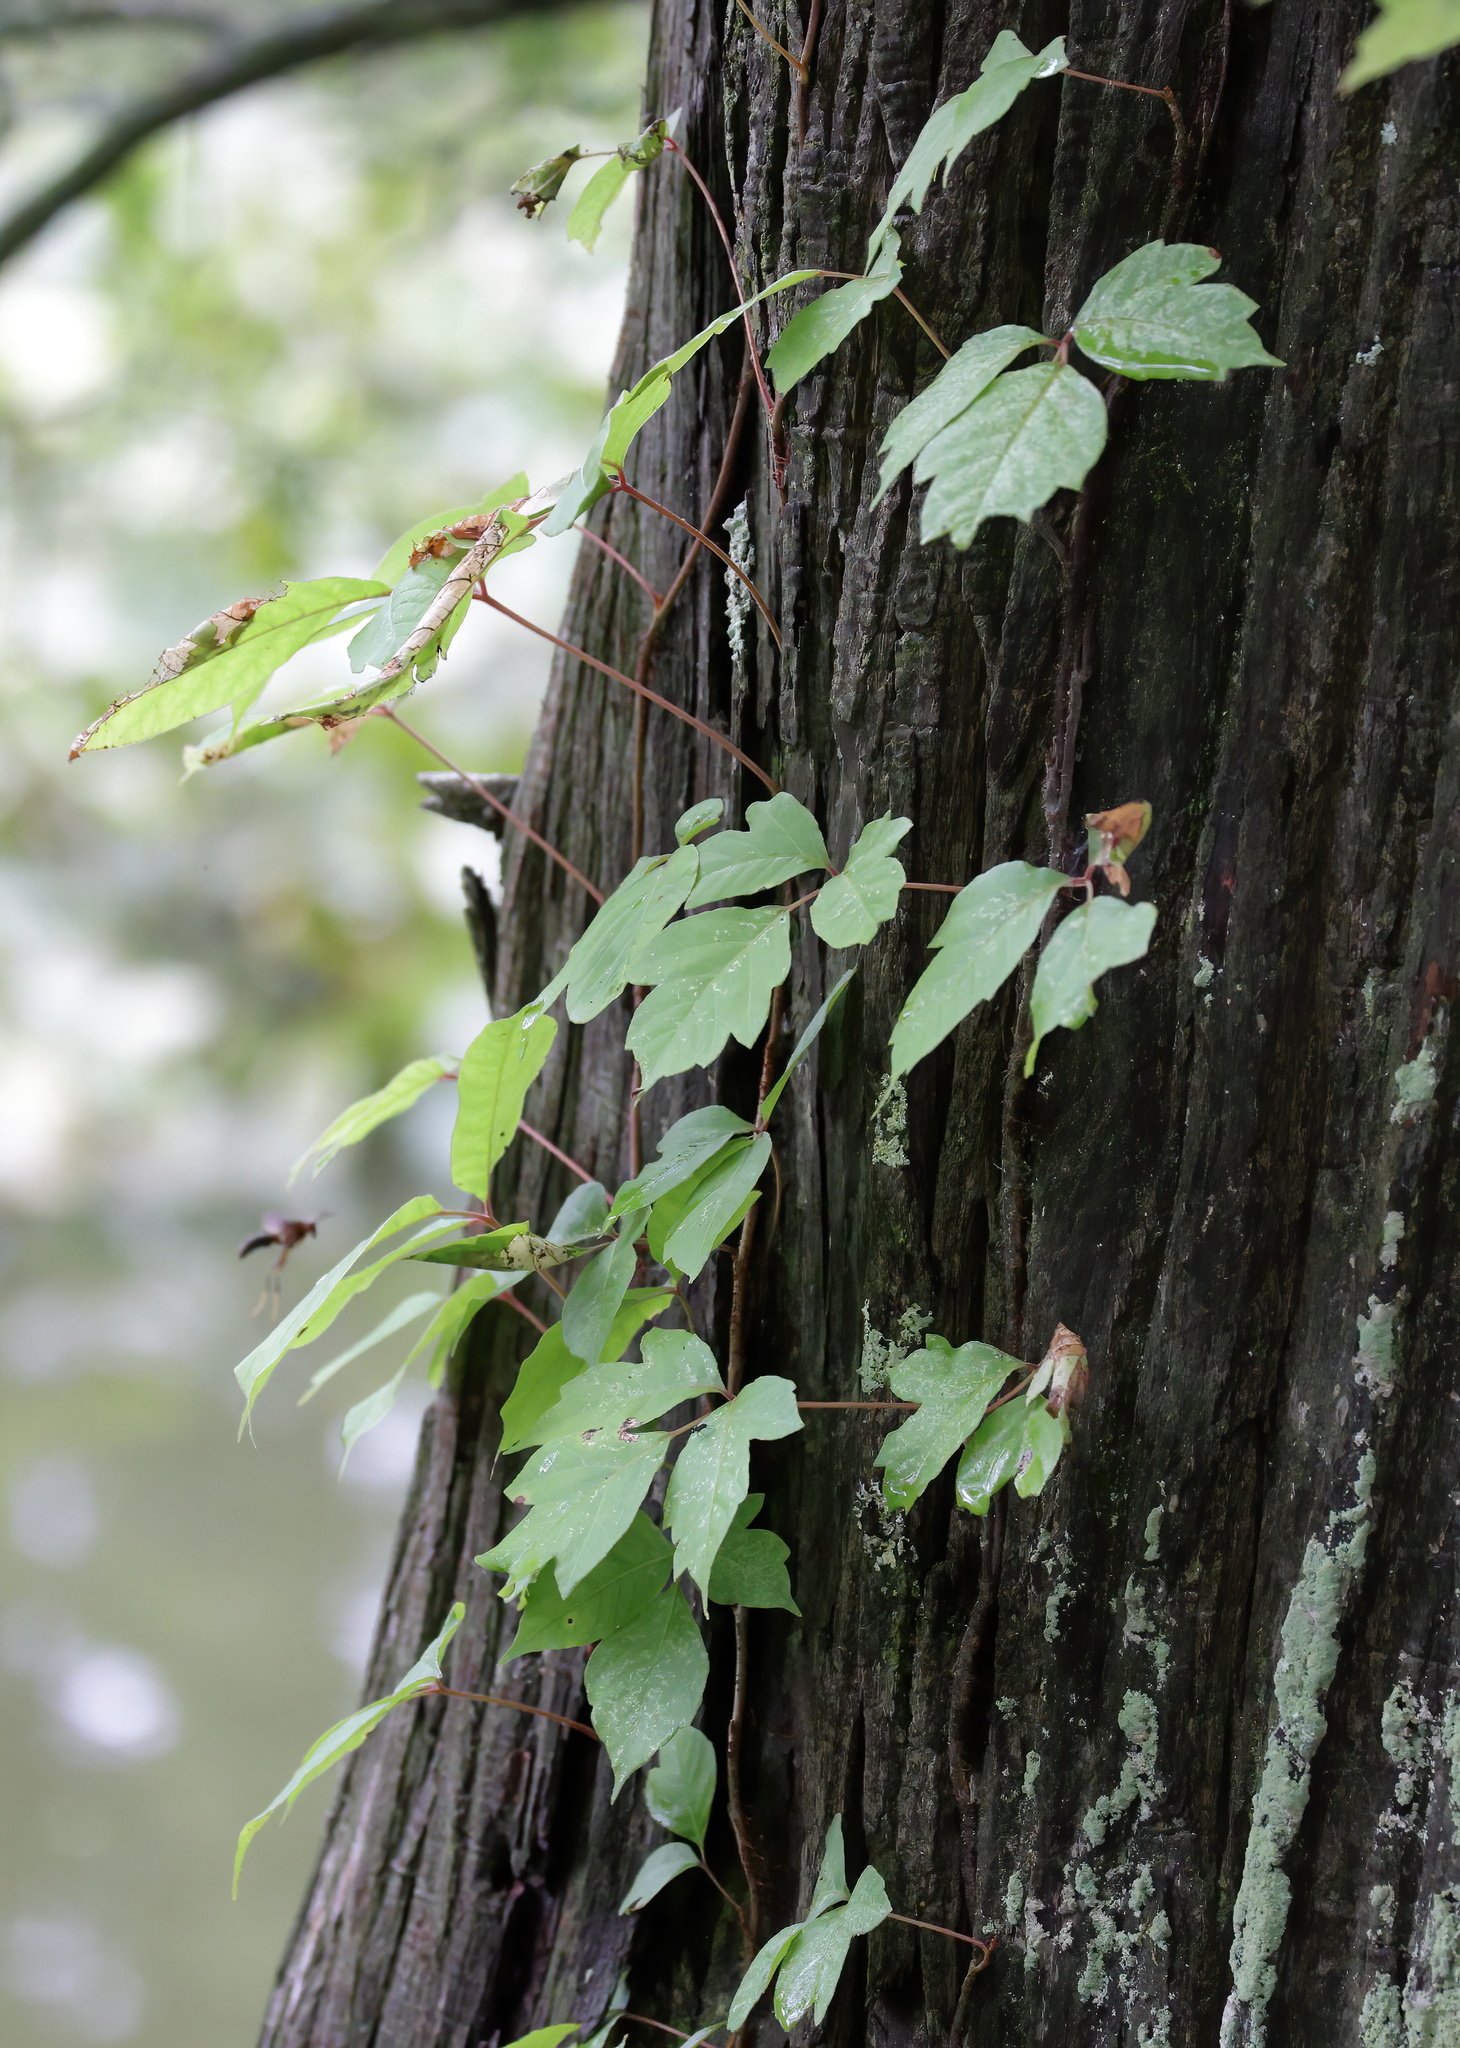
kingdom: Plantae
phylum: Tracheophyta
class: Magnoliopsida
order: Sapindales
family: Anacardiaceae
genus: Toxicodendron
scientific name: Toxicodendron radicans
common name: Poison ivy
